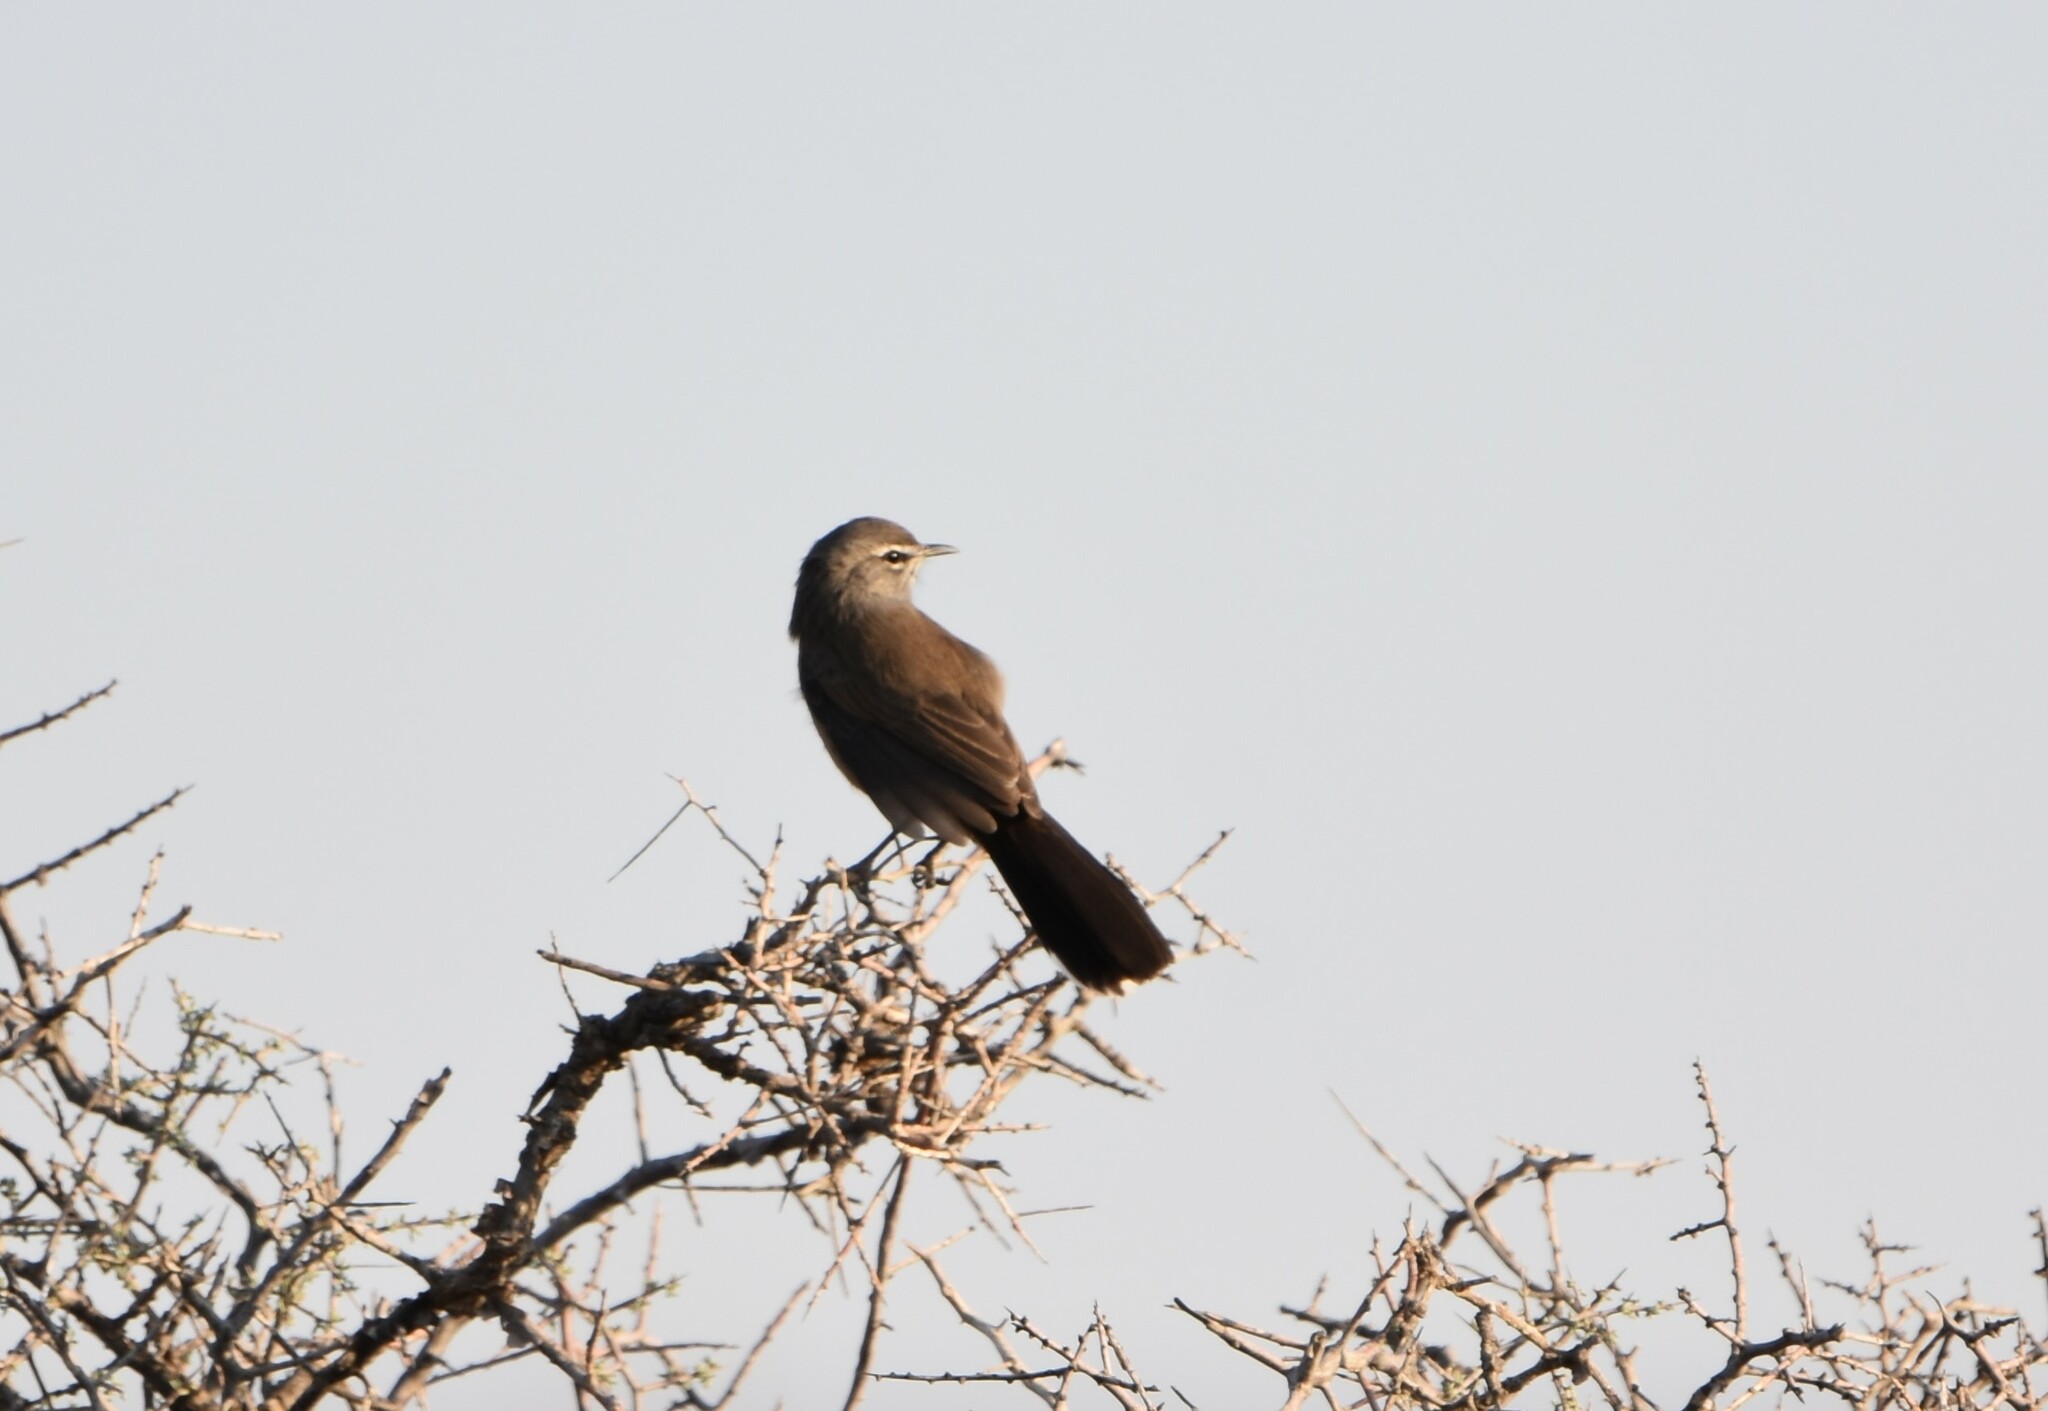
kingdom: Animalia
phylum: Chordata
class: Aves
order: Passeriformes
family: Muscicapidae
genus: Erythropygia
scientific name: Erythropygia coryphoeus
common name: Karoo scrub robin
